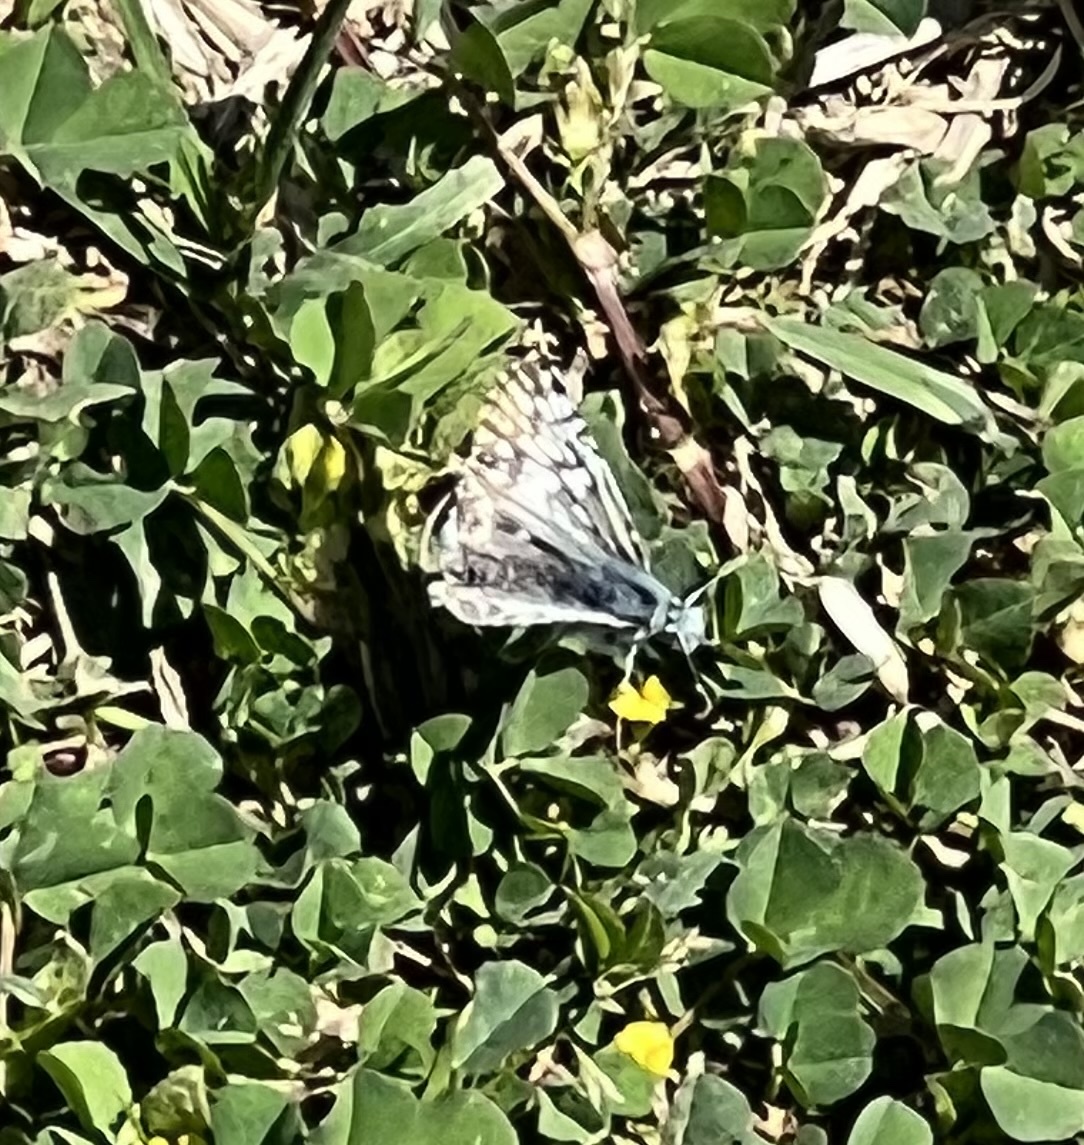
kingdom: Animalia
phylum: Arthropoda
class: Insecta
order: Lepidoptera
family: Hesperiidae
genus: Burnsius
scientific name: Burnsius
